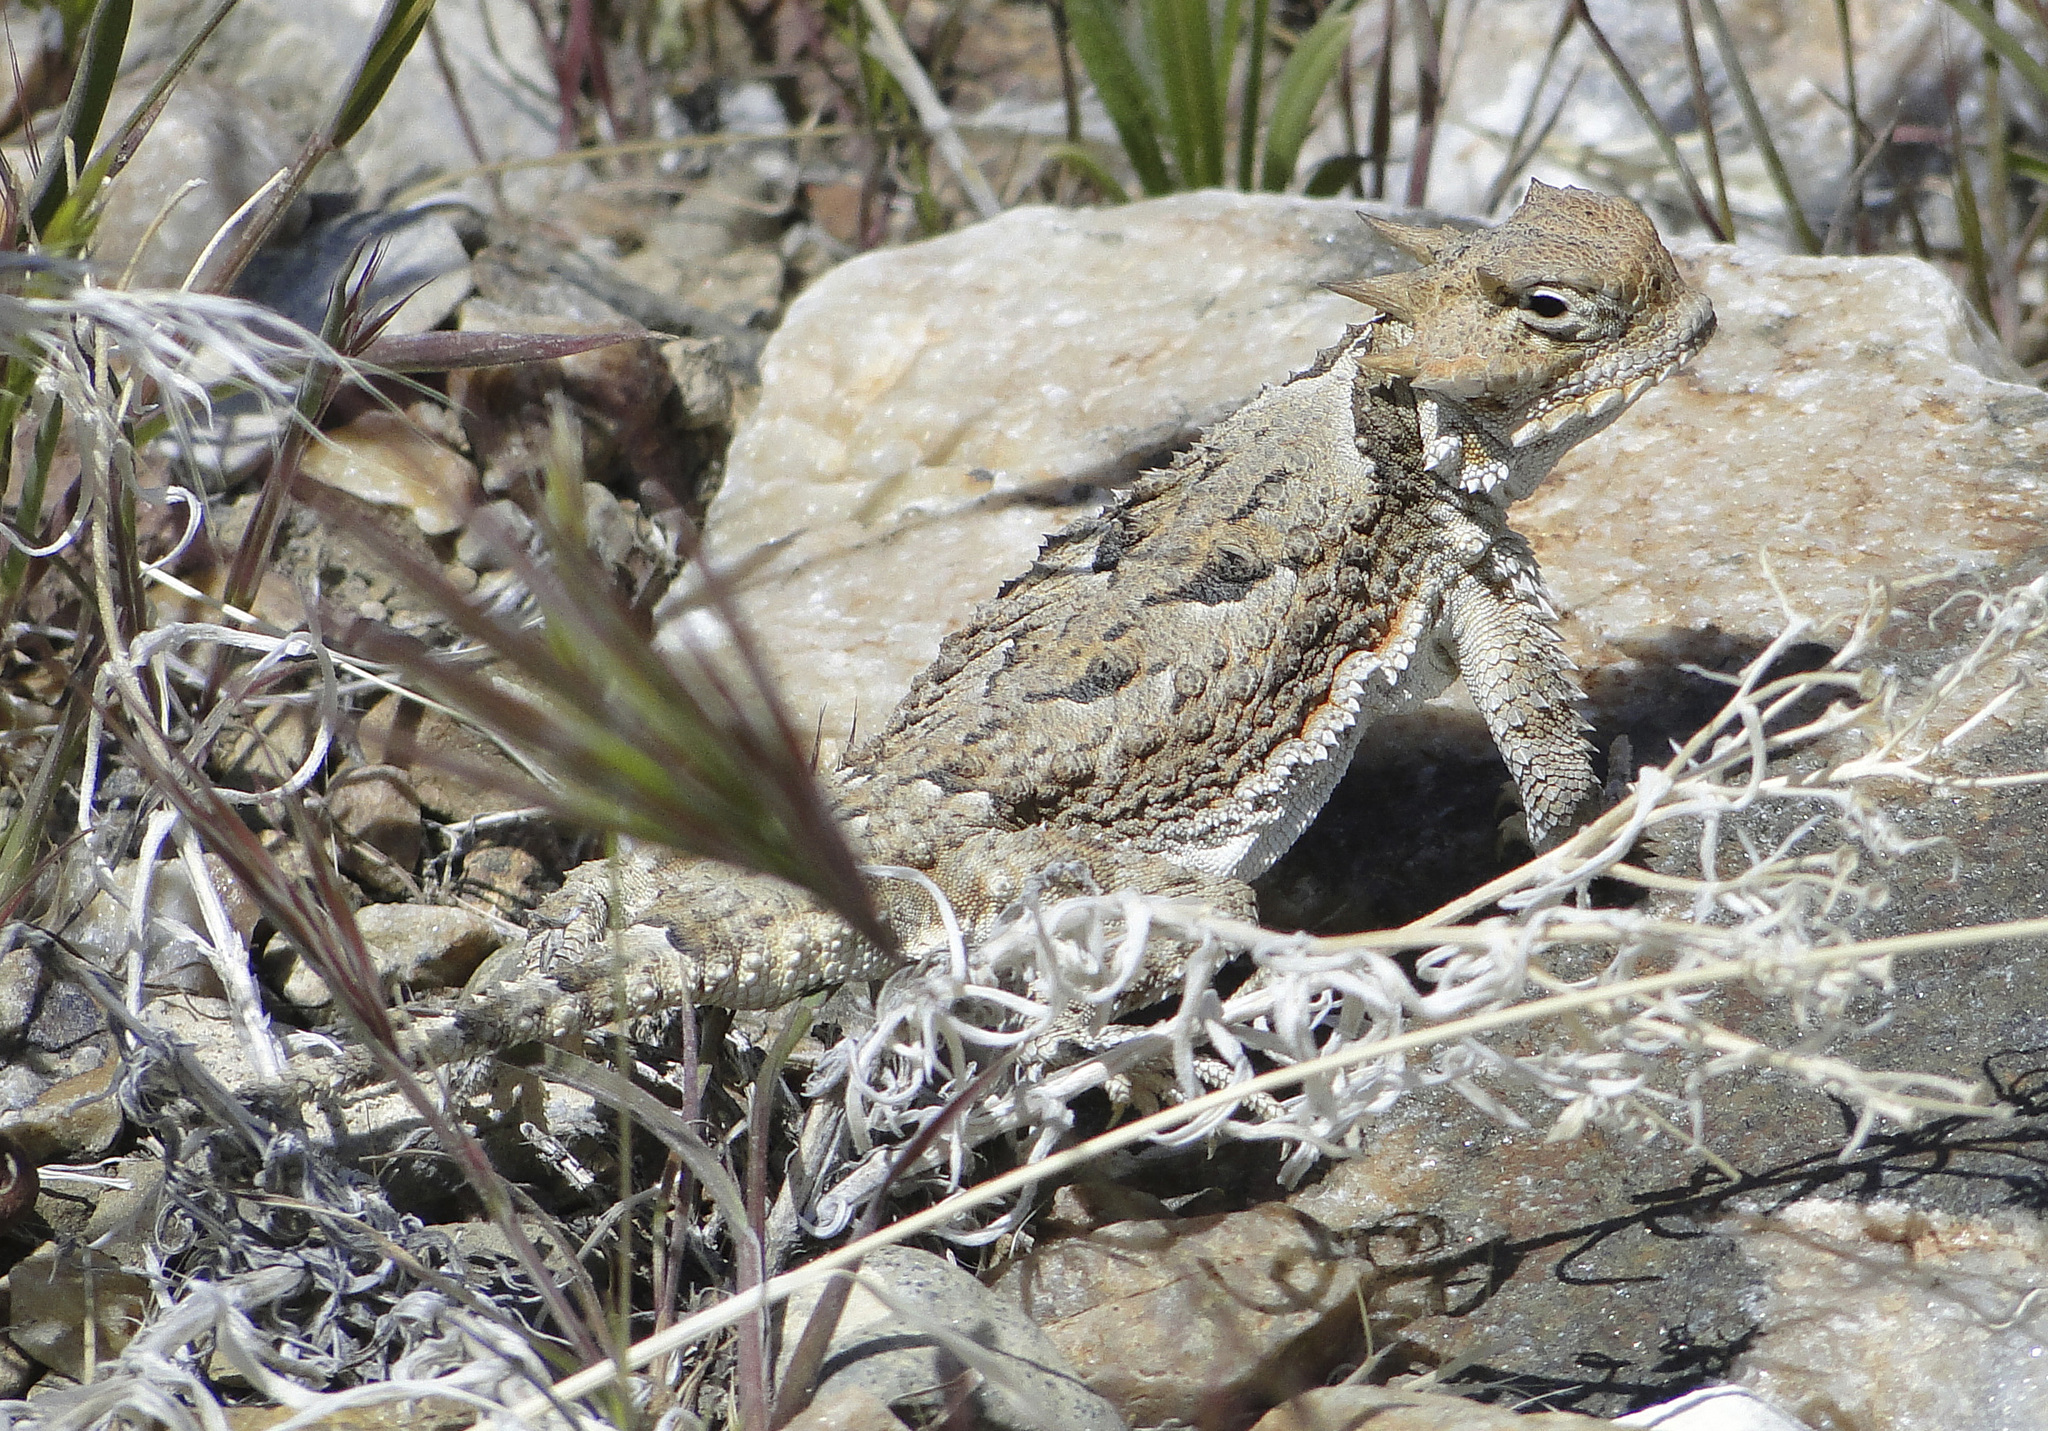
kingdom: Animalia
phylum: Chordata
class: Squamata
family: Phrynosomatidae
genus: Phrynosoma
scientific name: Phrynosoma platyrhinos
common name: Desert horned lizard
